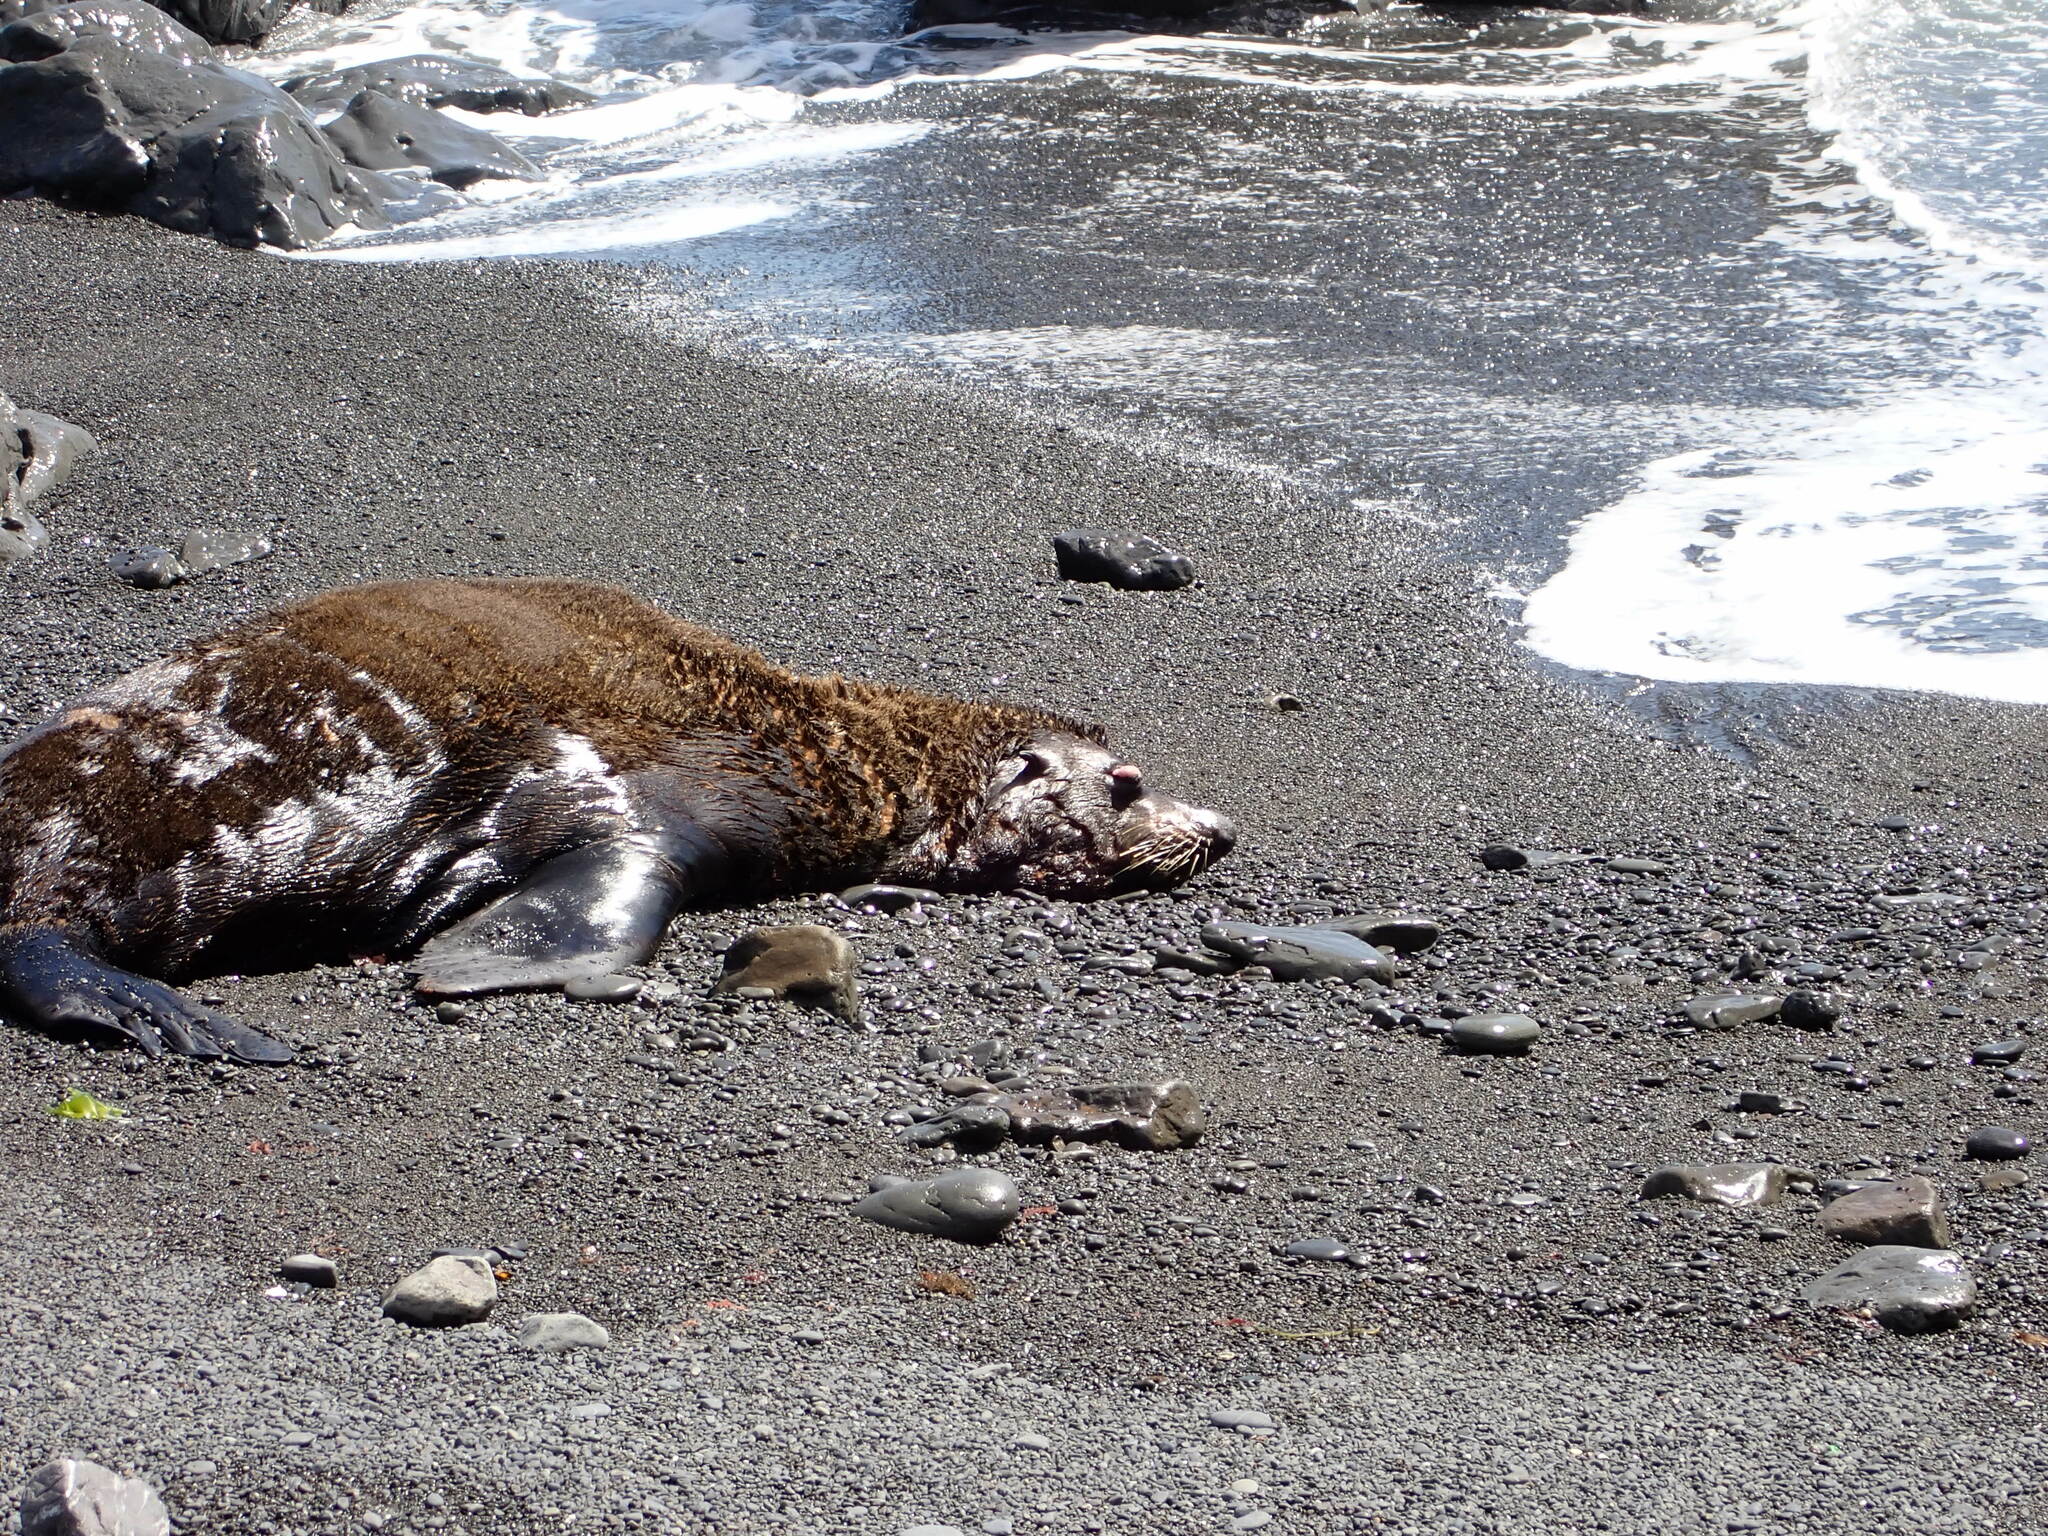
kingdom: Animalia
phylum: Chordata
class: Mammalia
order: Carnivora
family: Otariidae
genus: Arctocephalus
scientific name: Arctocephalus forsteri
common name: New zealand fur seal
